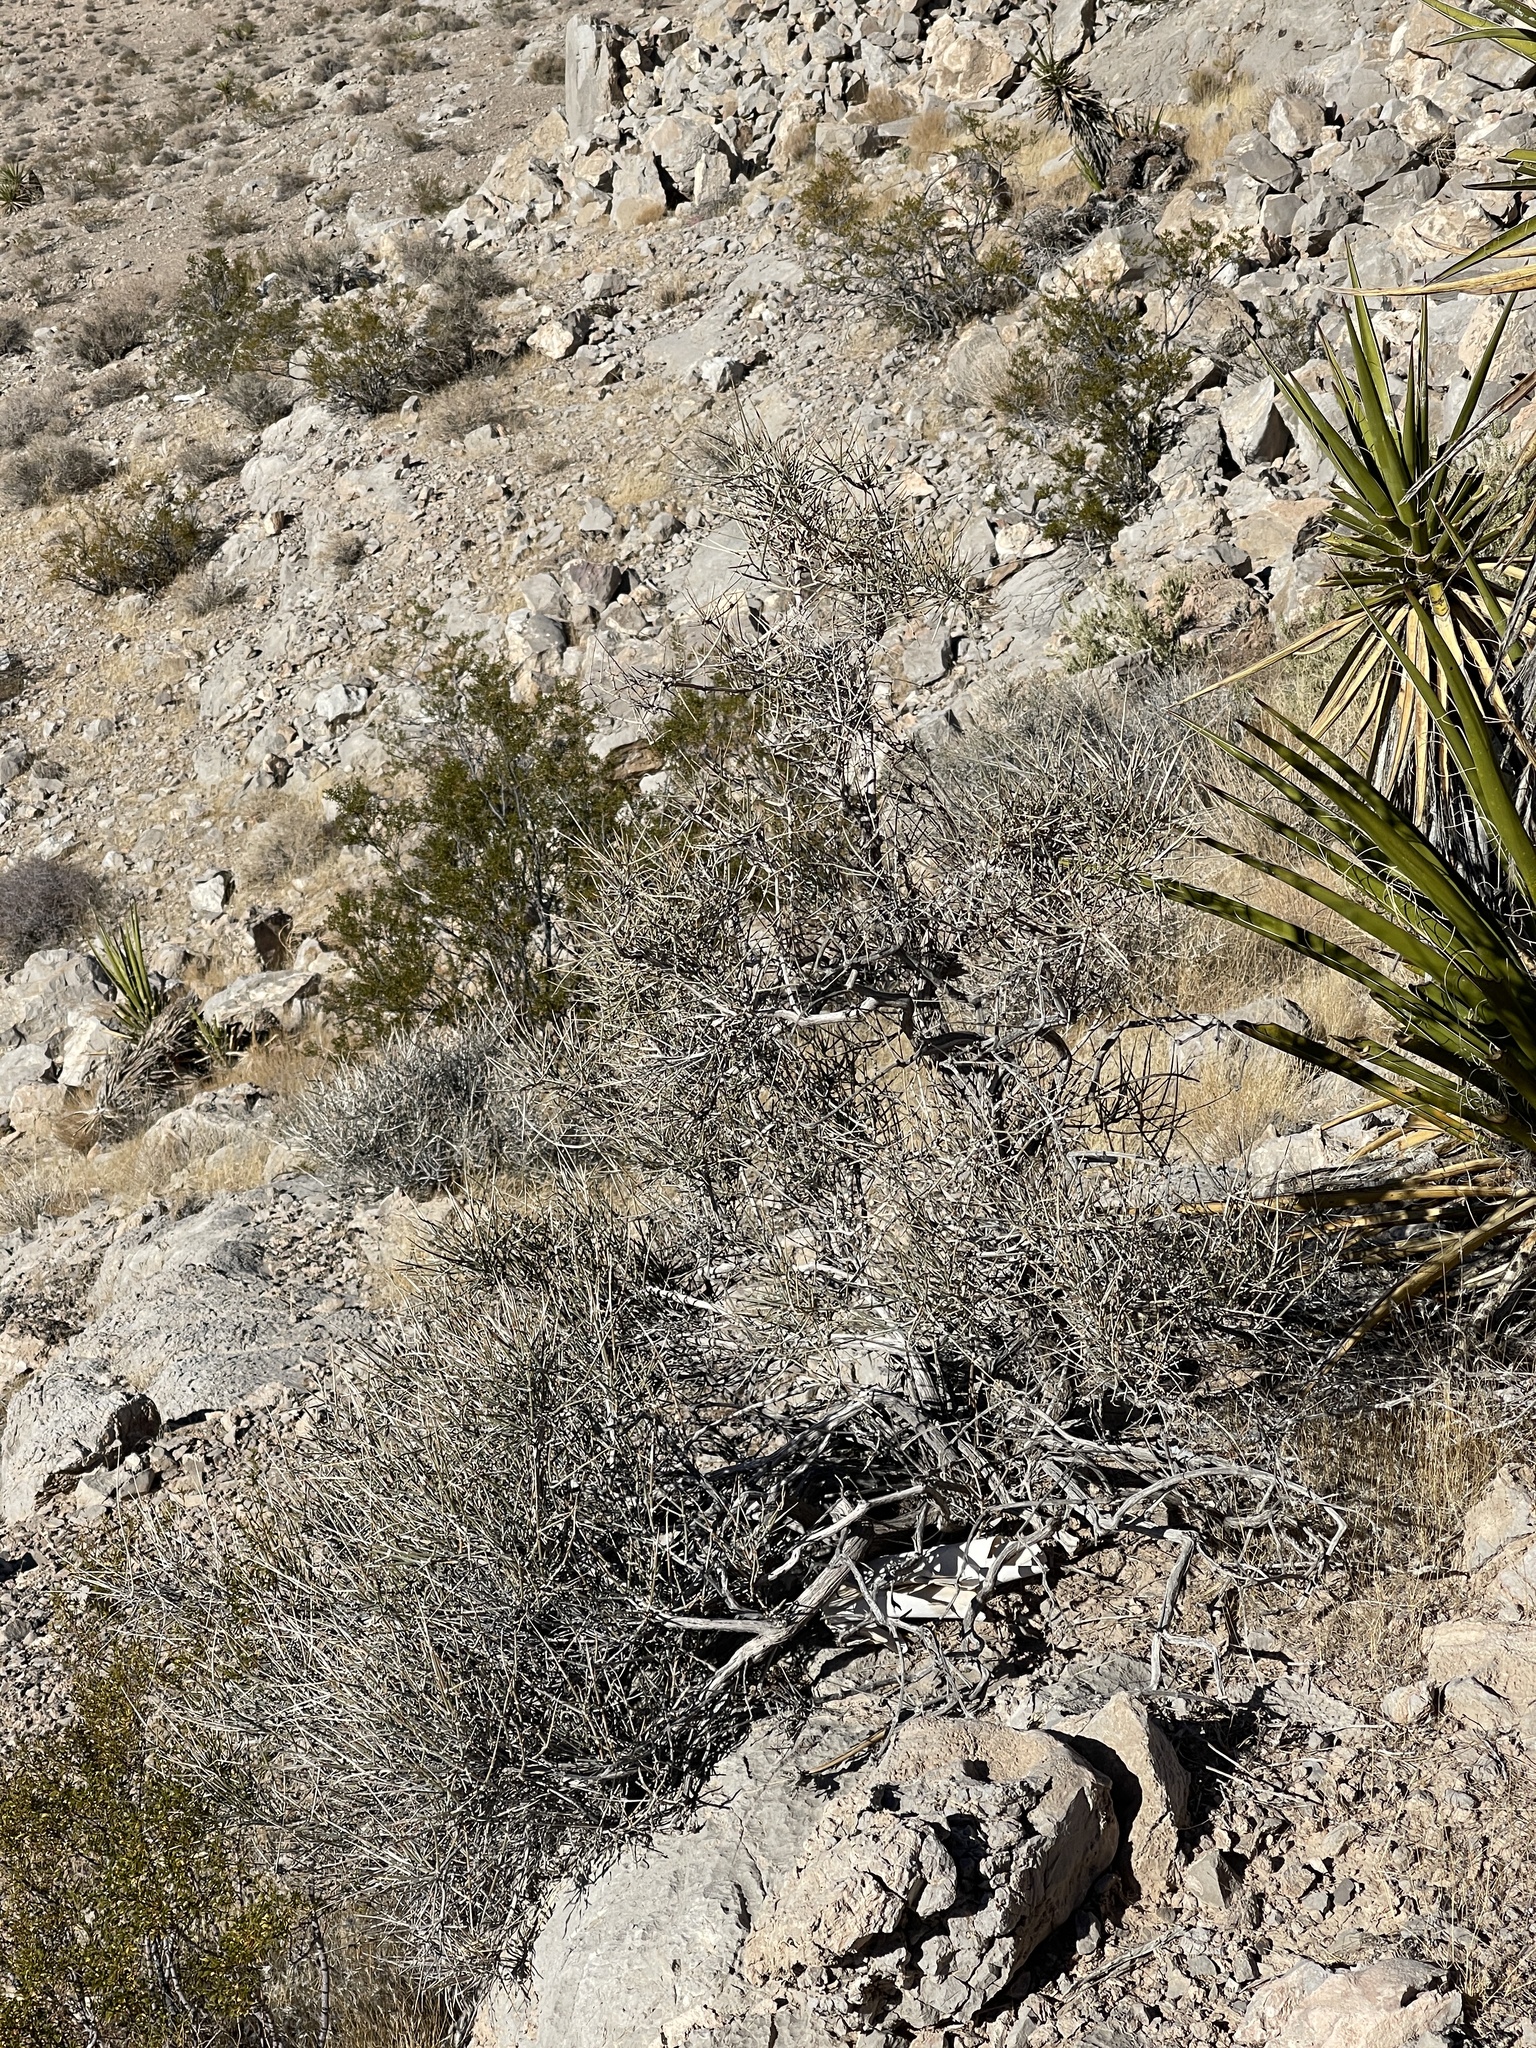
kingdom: Plantae
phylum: Tracheophyta
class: Gnetopsida
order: Ephedrales
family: Ephedraceae
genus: Ephedra
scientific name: Ephedra nevadensis
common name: Gray ephedra
